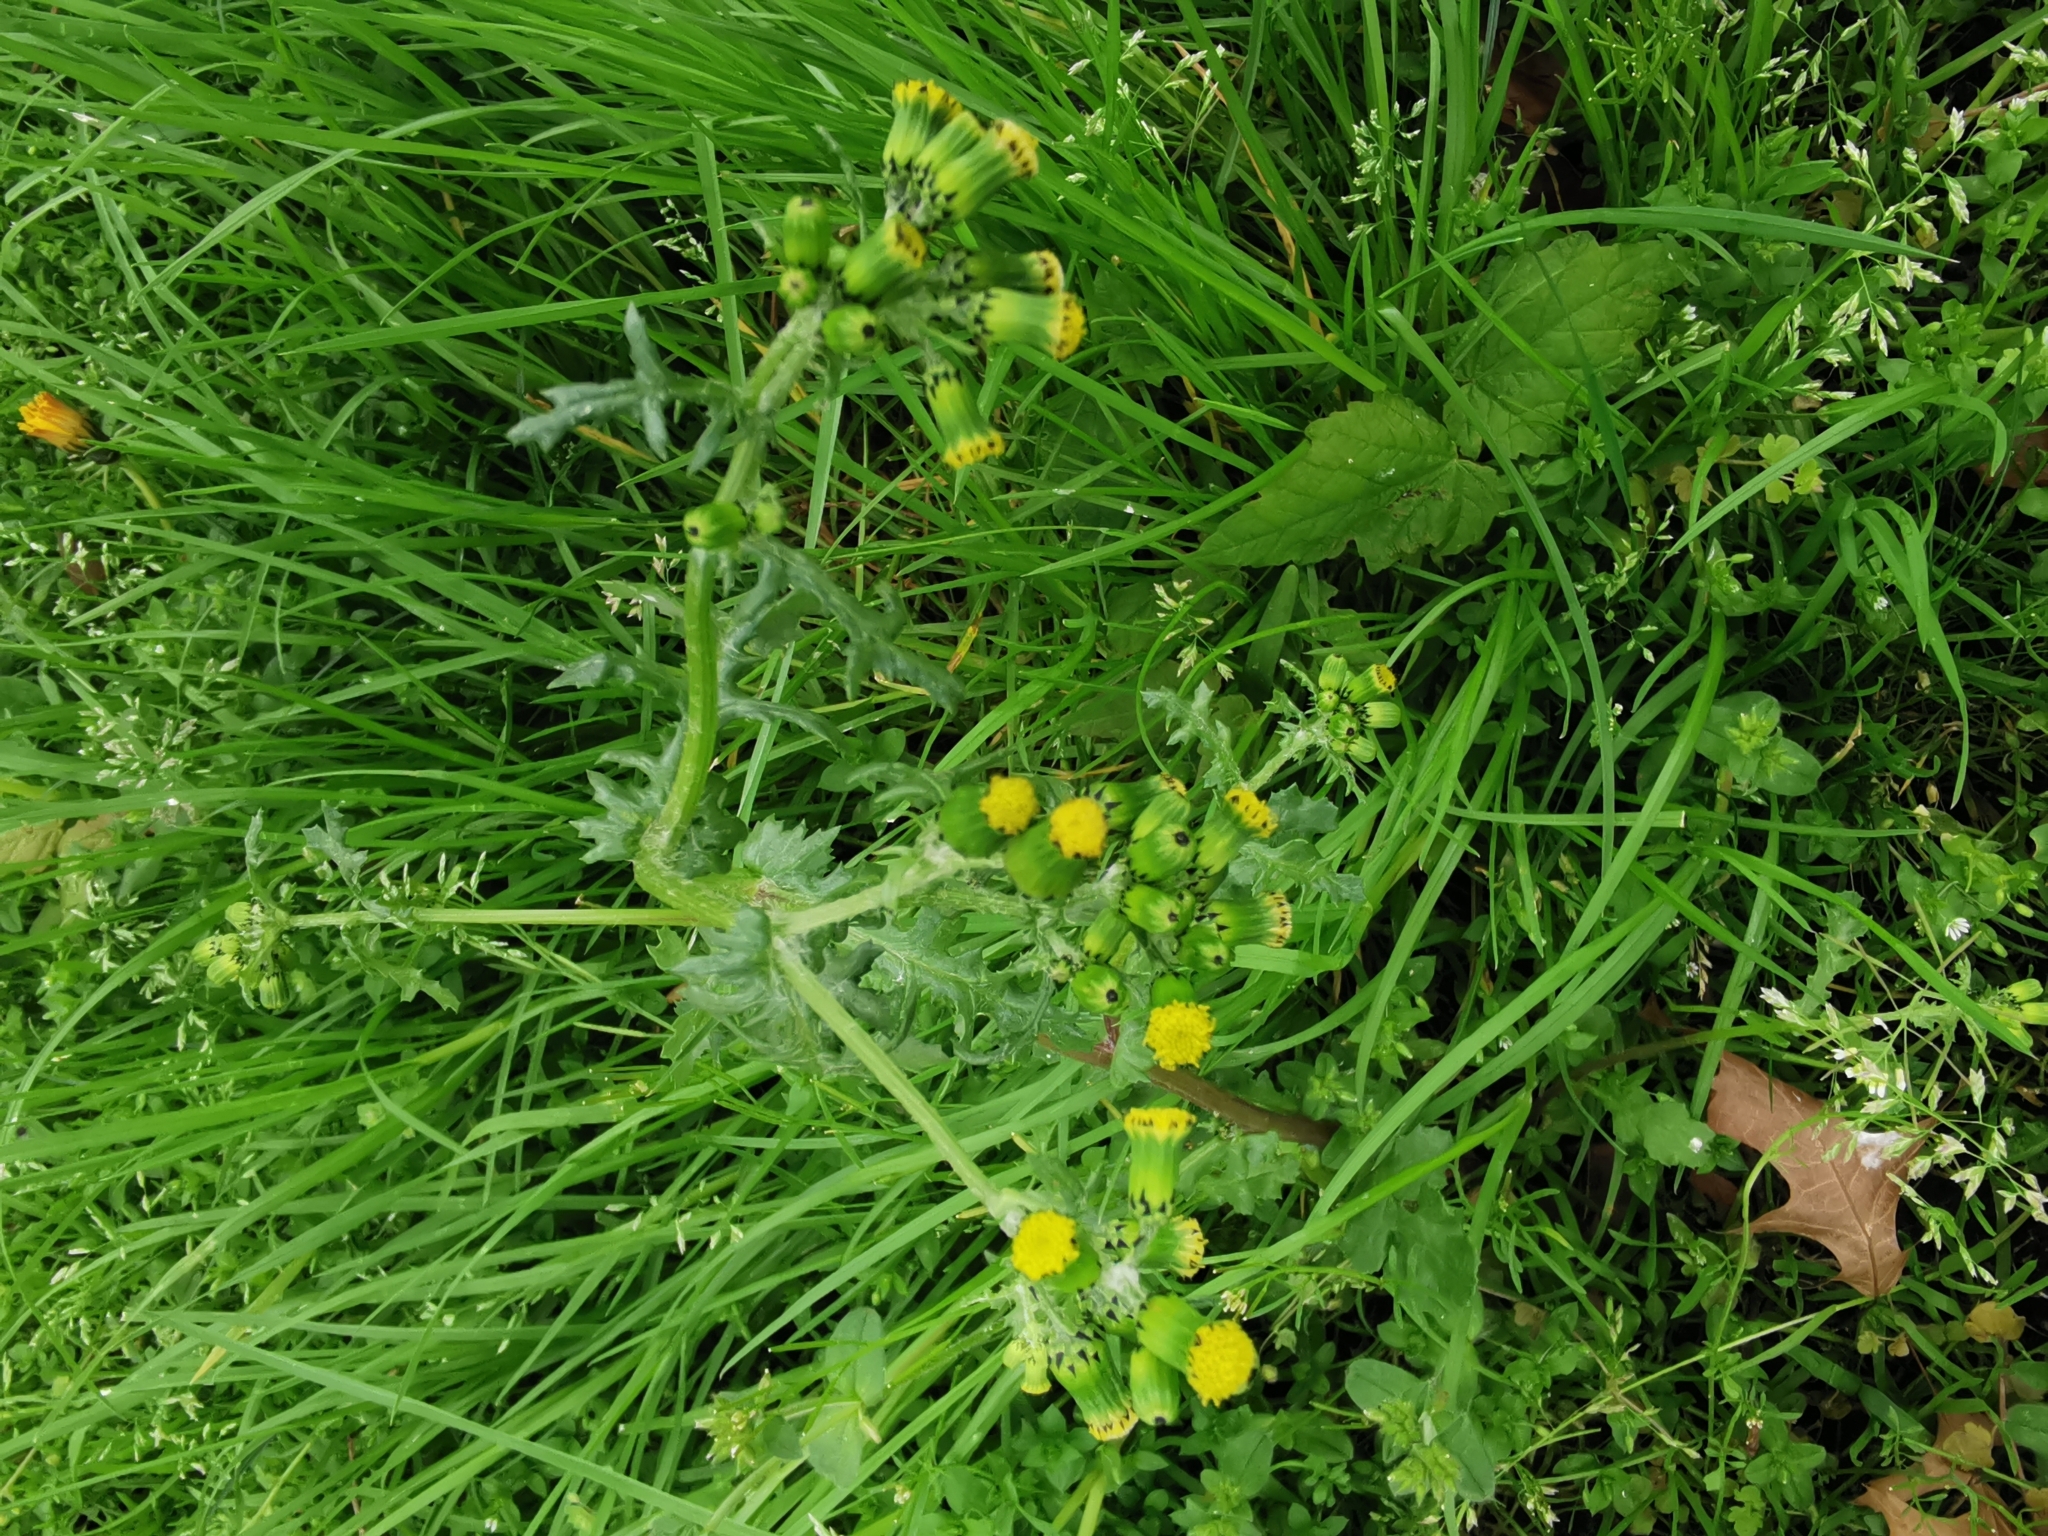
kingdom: Plantae
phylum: Tracheophyta
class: Magnoliopsida
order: Asterales
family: Asteraceae
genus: Senecio
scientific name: Senecio vulgaris
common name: Old-man-in-the-spring
